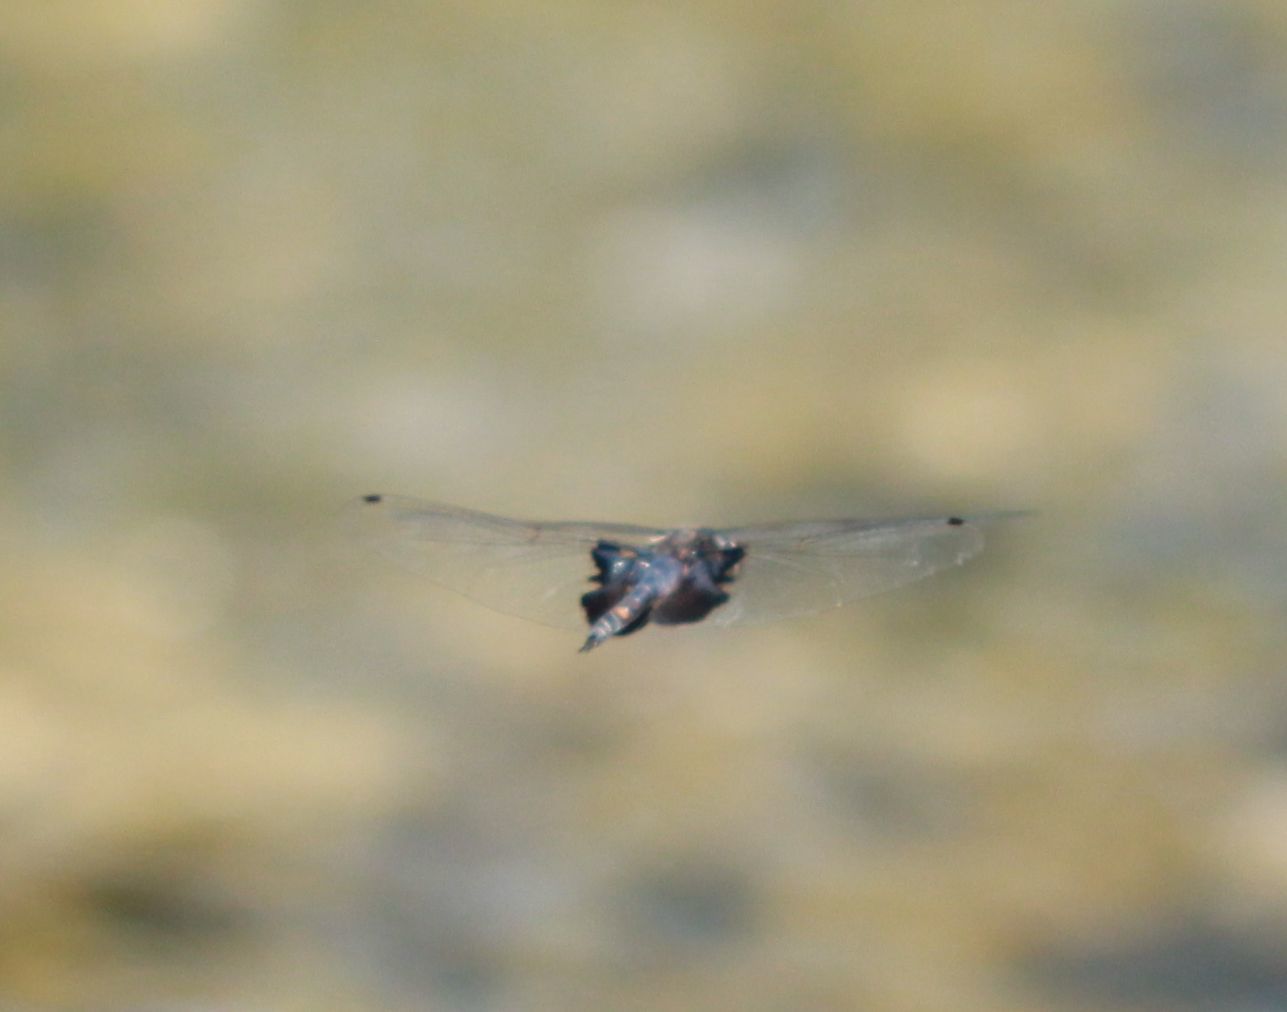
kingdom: Animalia
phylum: Arthropoda
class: Insecta
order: Odonata
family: Libellulidae
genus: Tramea
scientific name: Tramea lacerata
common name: Black saddlebags
